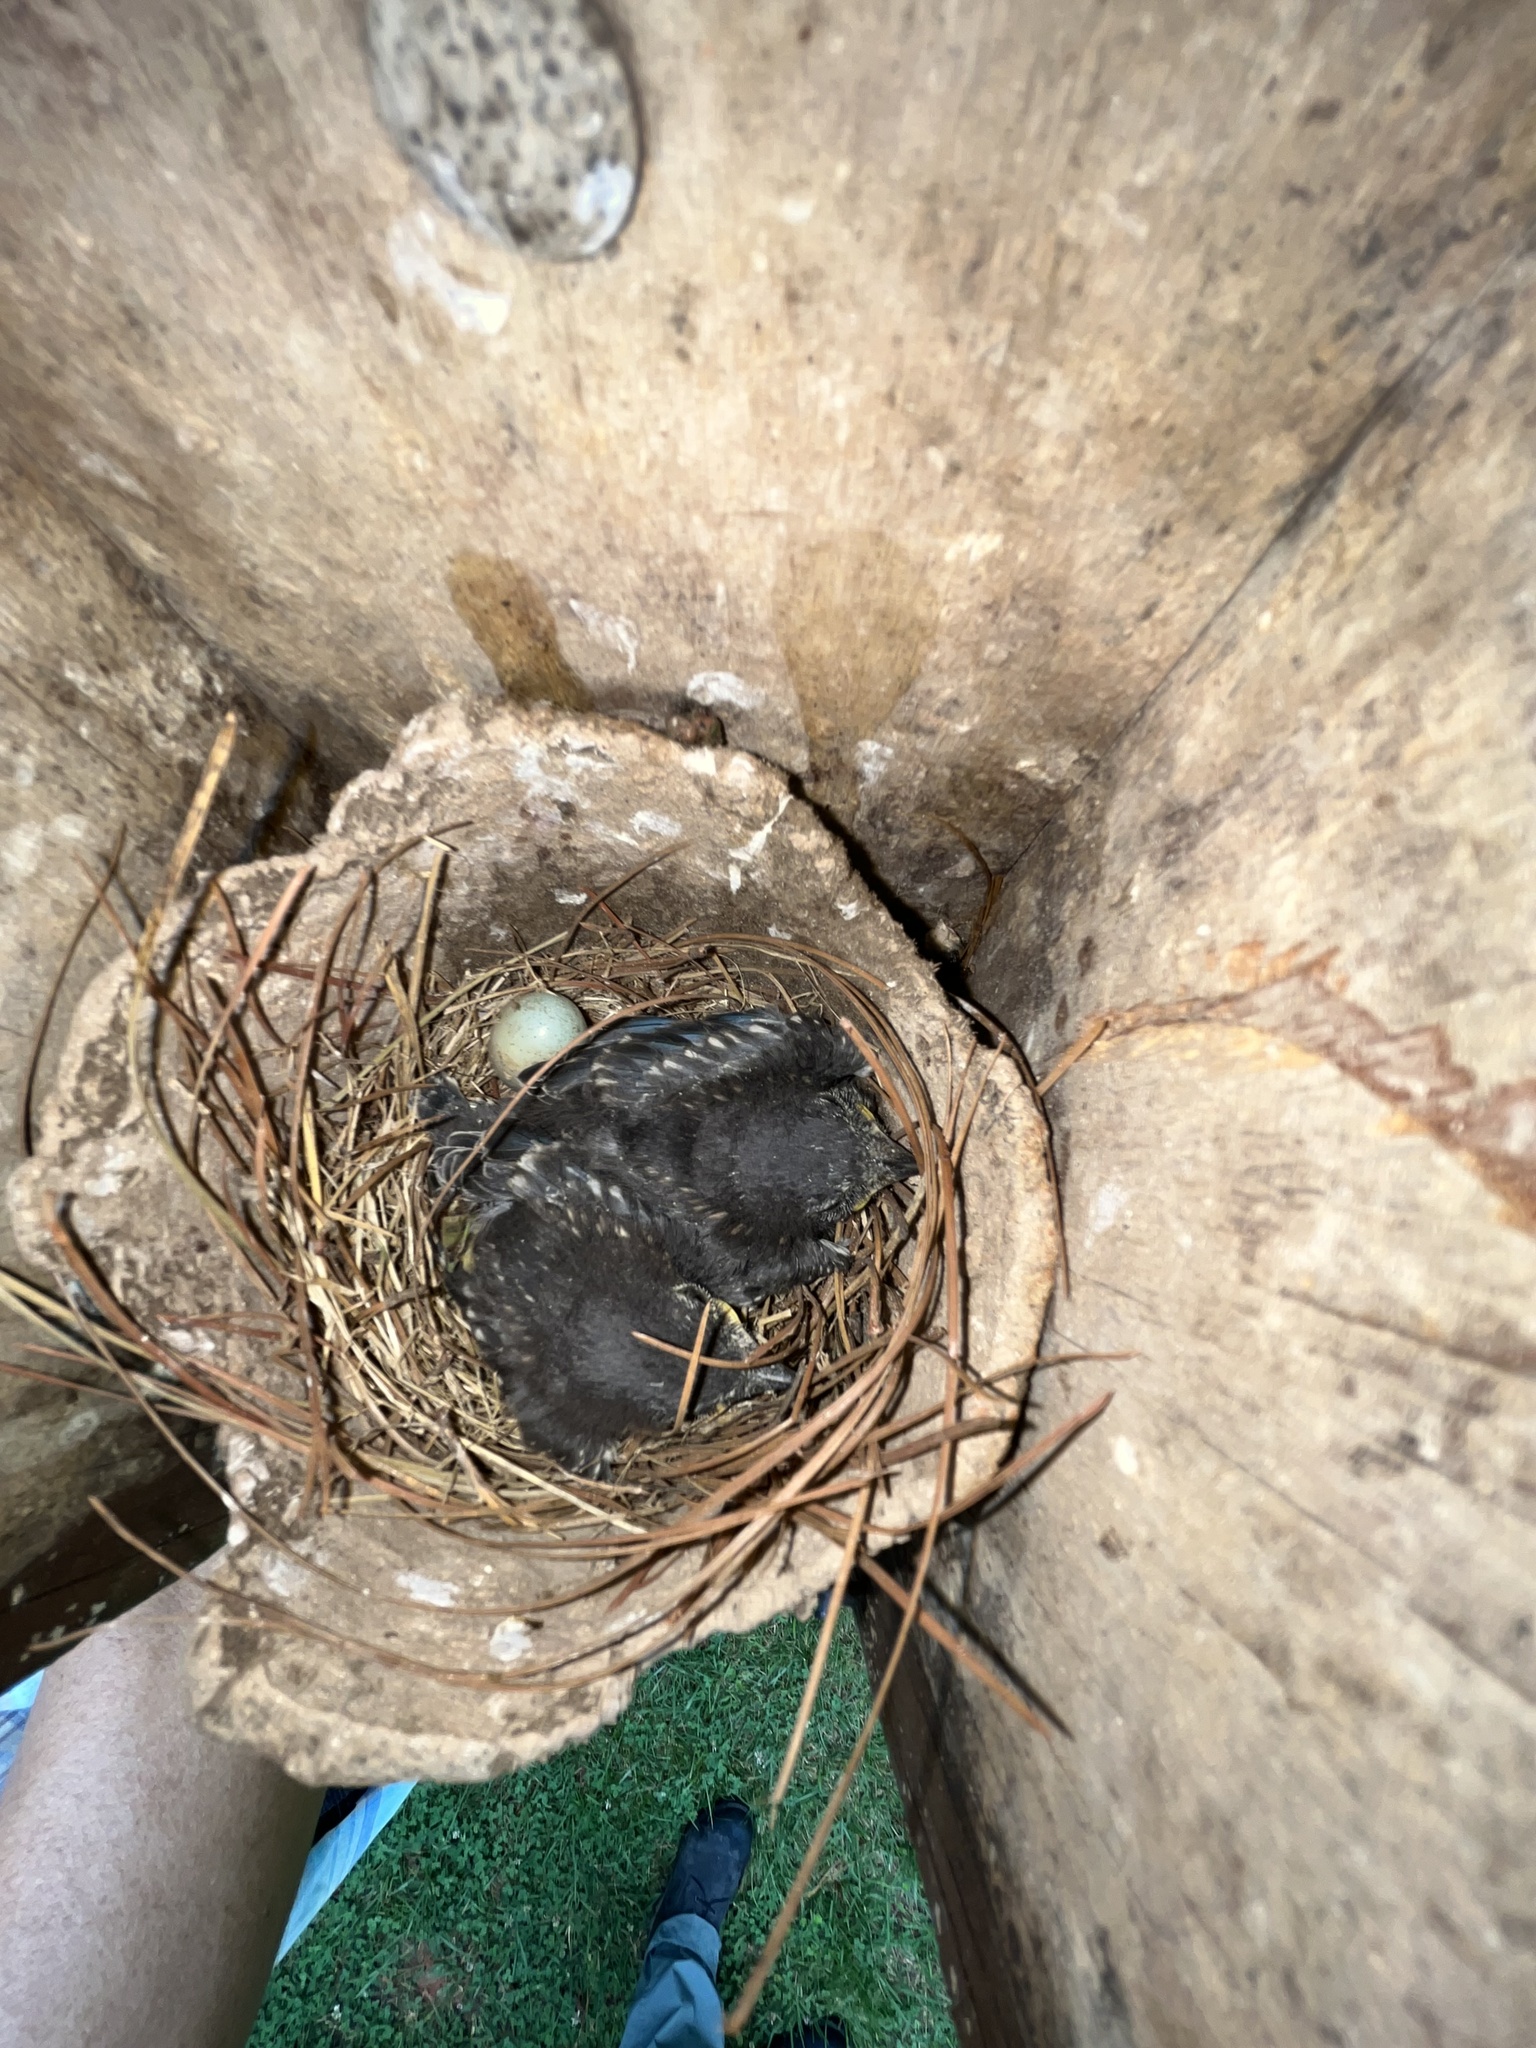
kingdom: Animalia
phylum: Chordata
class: Aves
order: Passeriformes
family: Turdidae
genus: Sialia
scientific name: Sialia sialis
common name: Eastern bluebird
